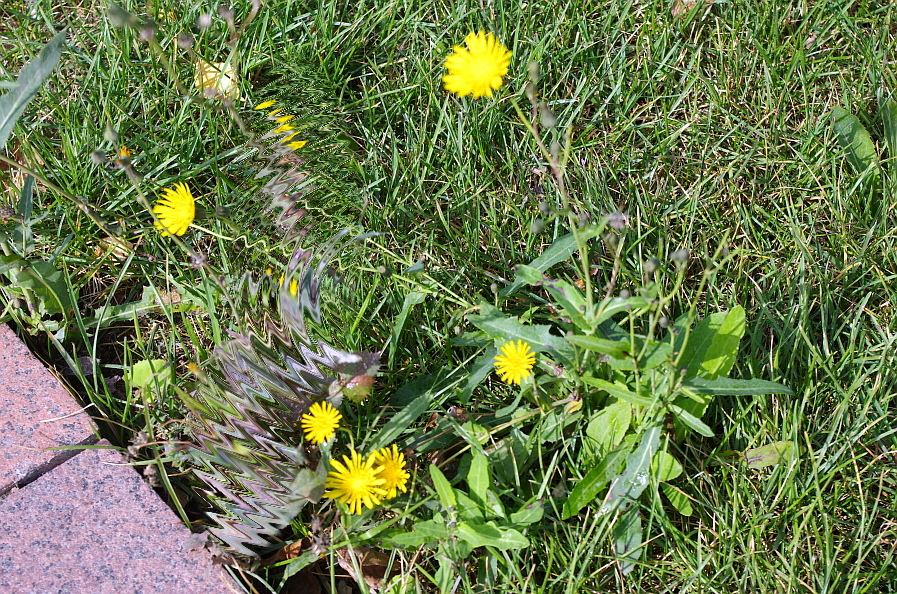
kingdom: Plantae
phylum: Tracheophyta
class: Magnoliopsida
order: Asterales
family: Asteraceae
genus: Scorzoneroides
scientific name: Scorzoneroides autumnalis
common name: Autumn hawkbit
